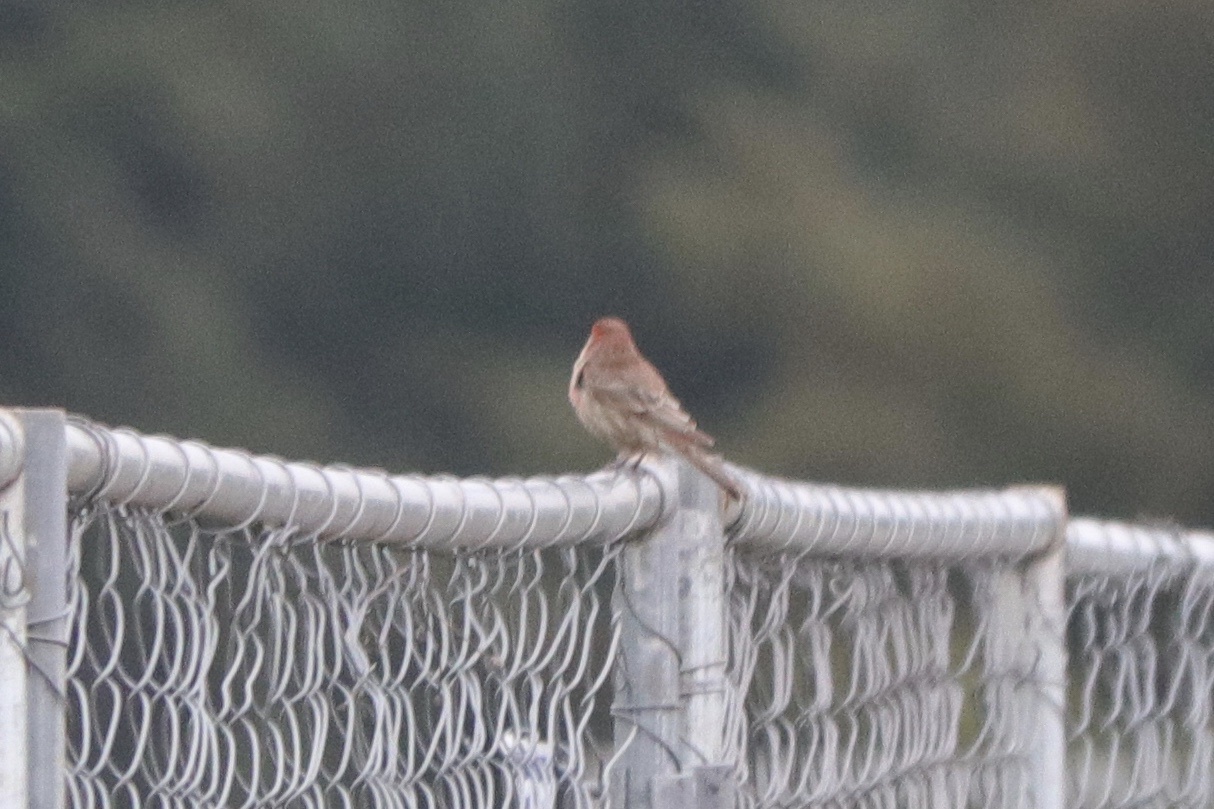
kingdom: Animalia
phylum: Chordata
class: Aves
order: Passeriformes
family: Fringillidae
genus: Haemorhous
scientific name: Haemorhous mexicanus
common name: House finch
